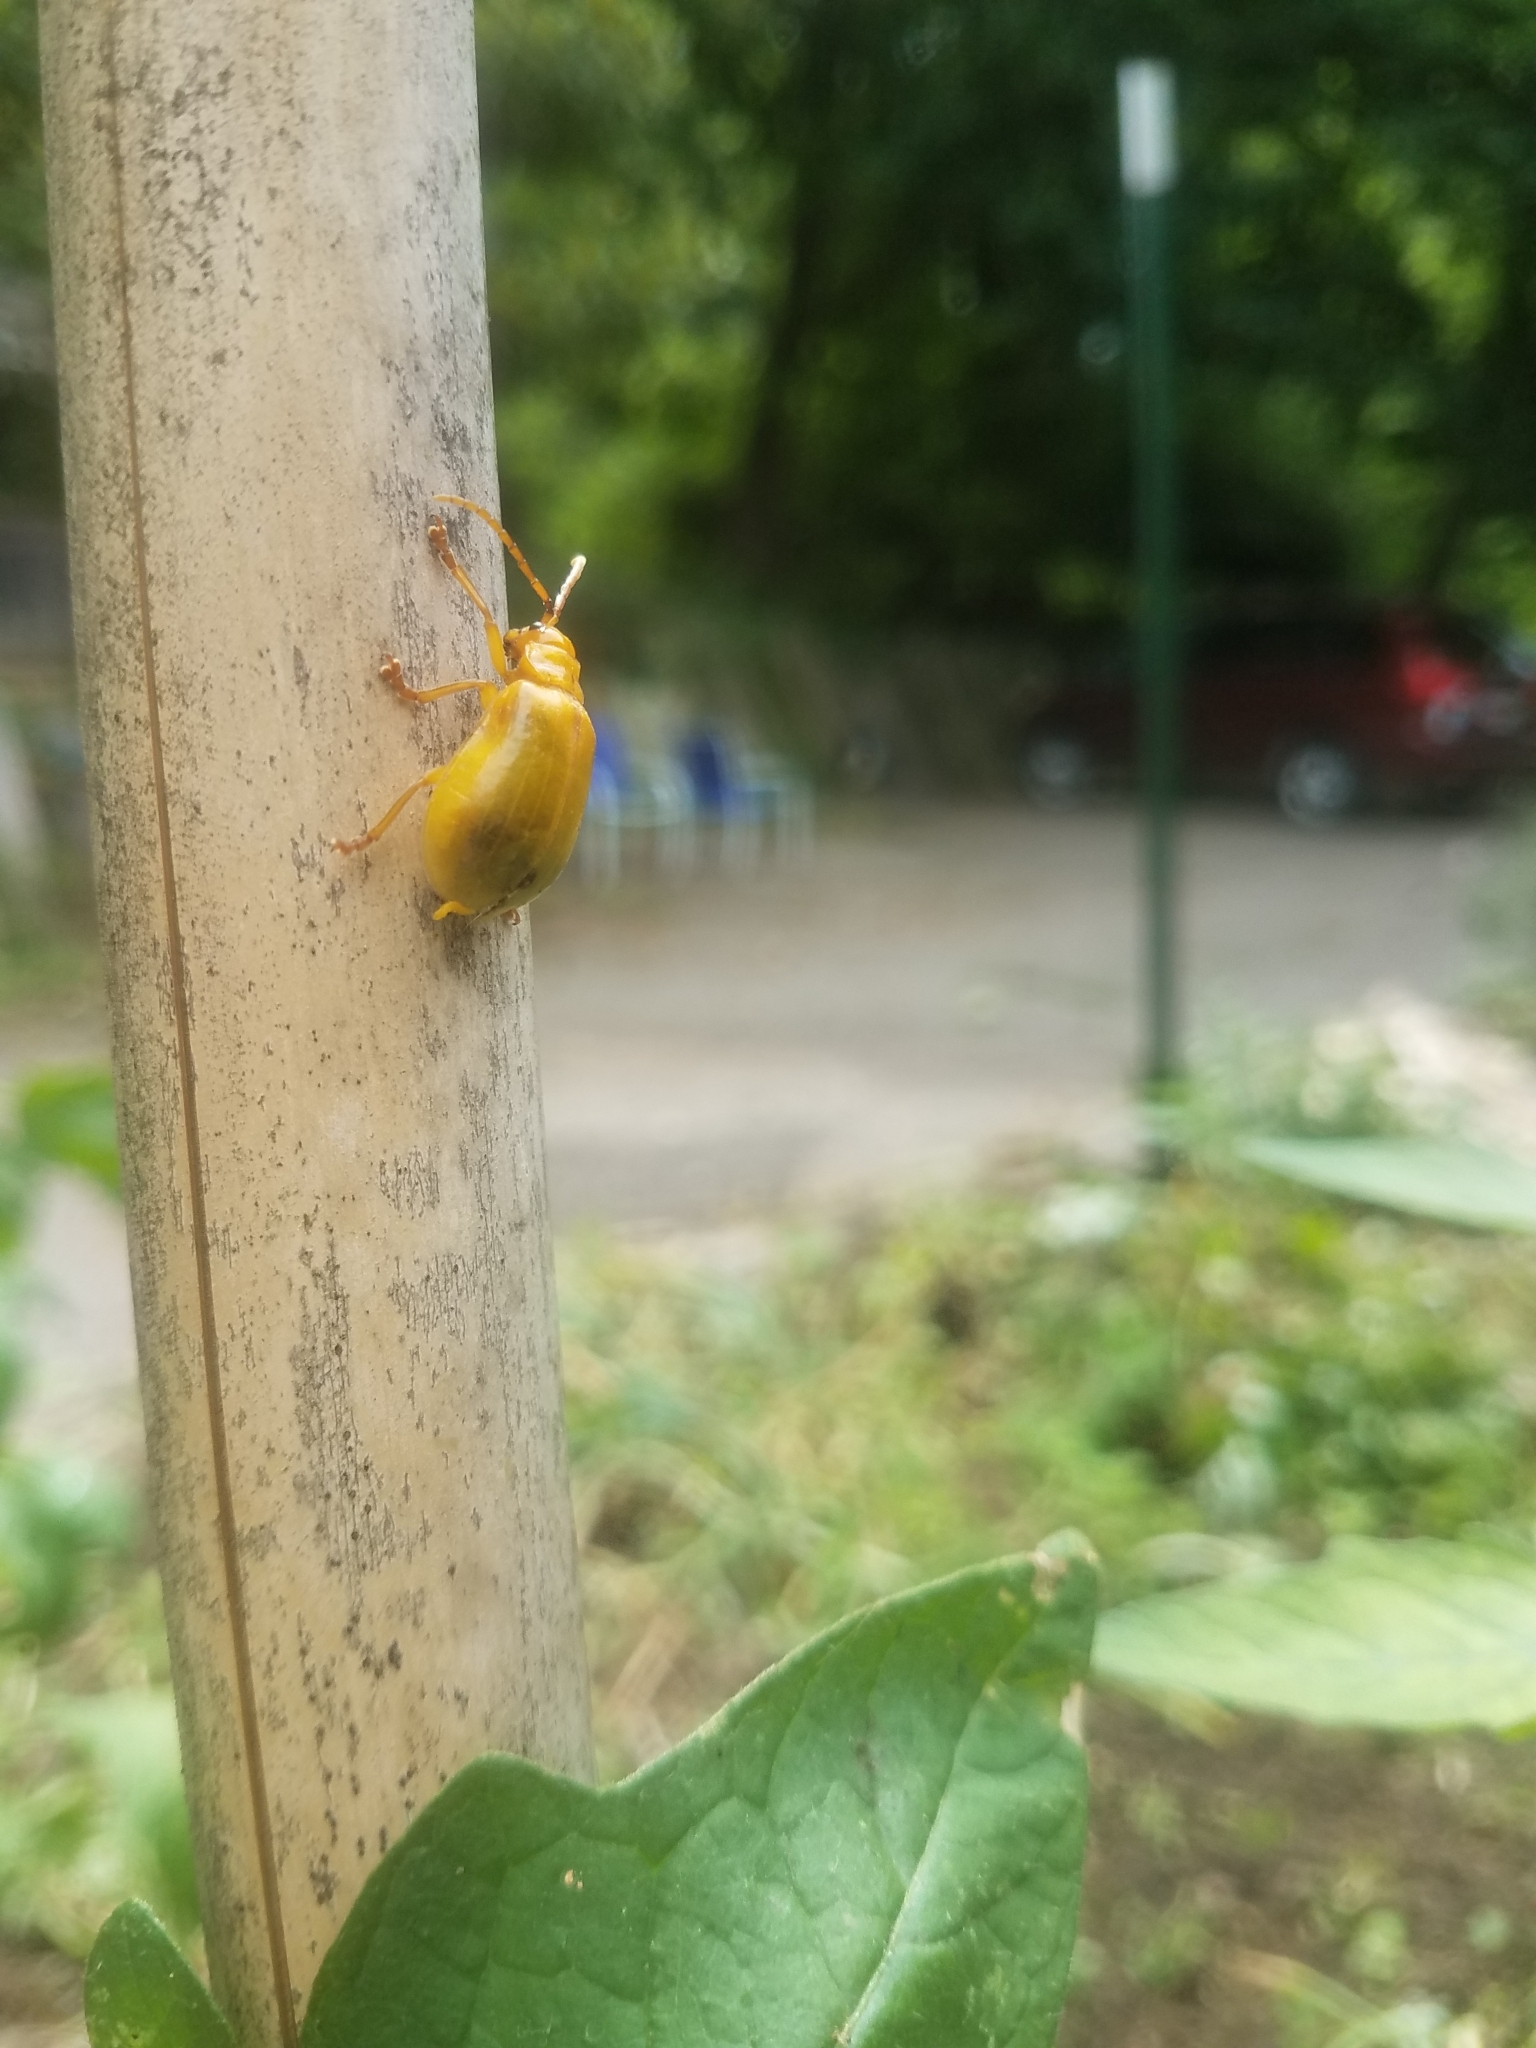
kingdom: Animalia
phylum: Arthropoda
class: Insecta
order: Coleoptera
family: Chrysomelidae
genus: Monocesta
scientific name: Monocesta coryli
